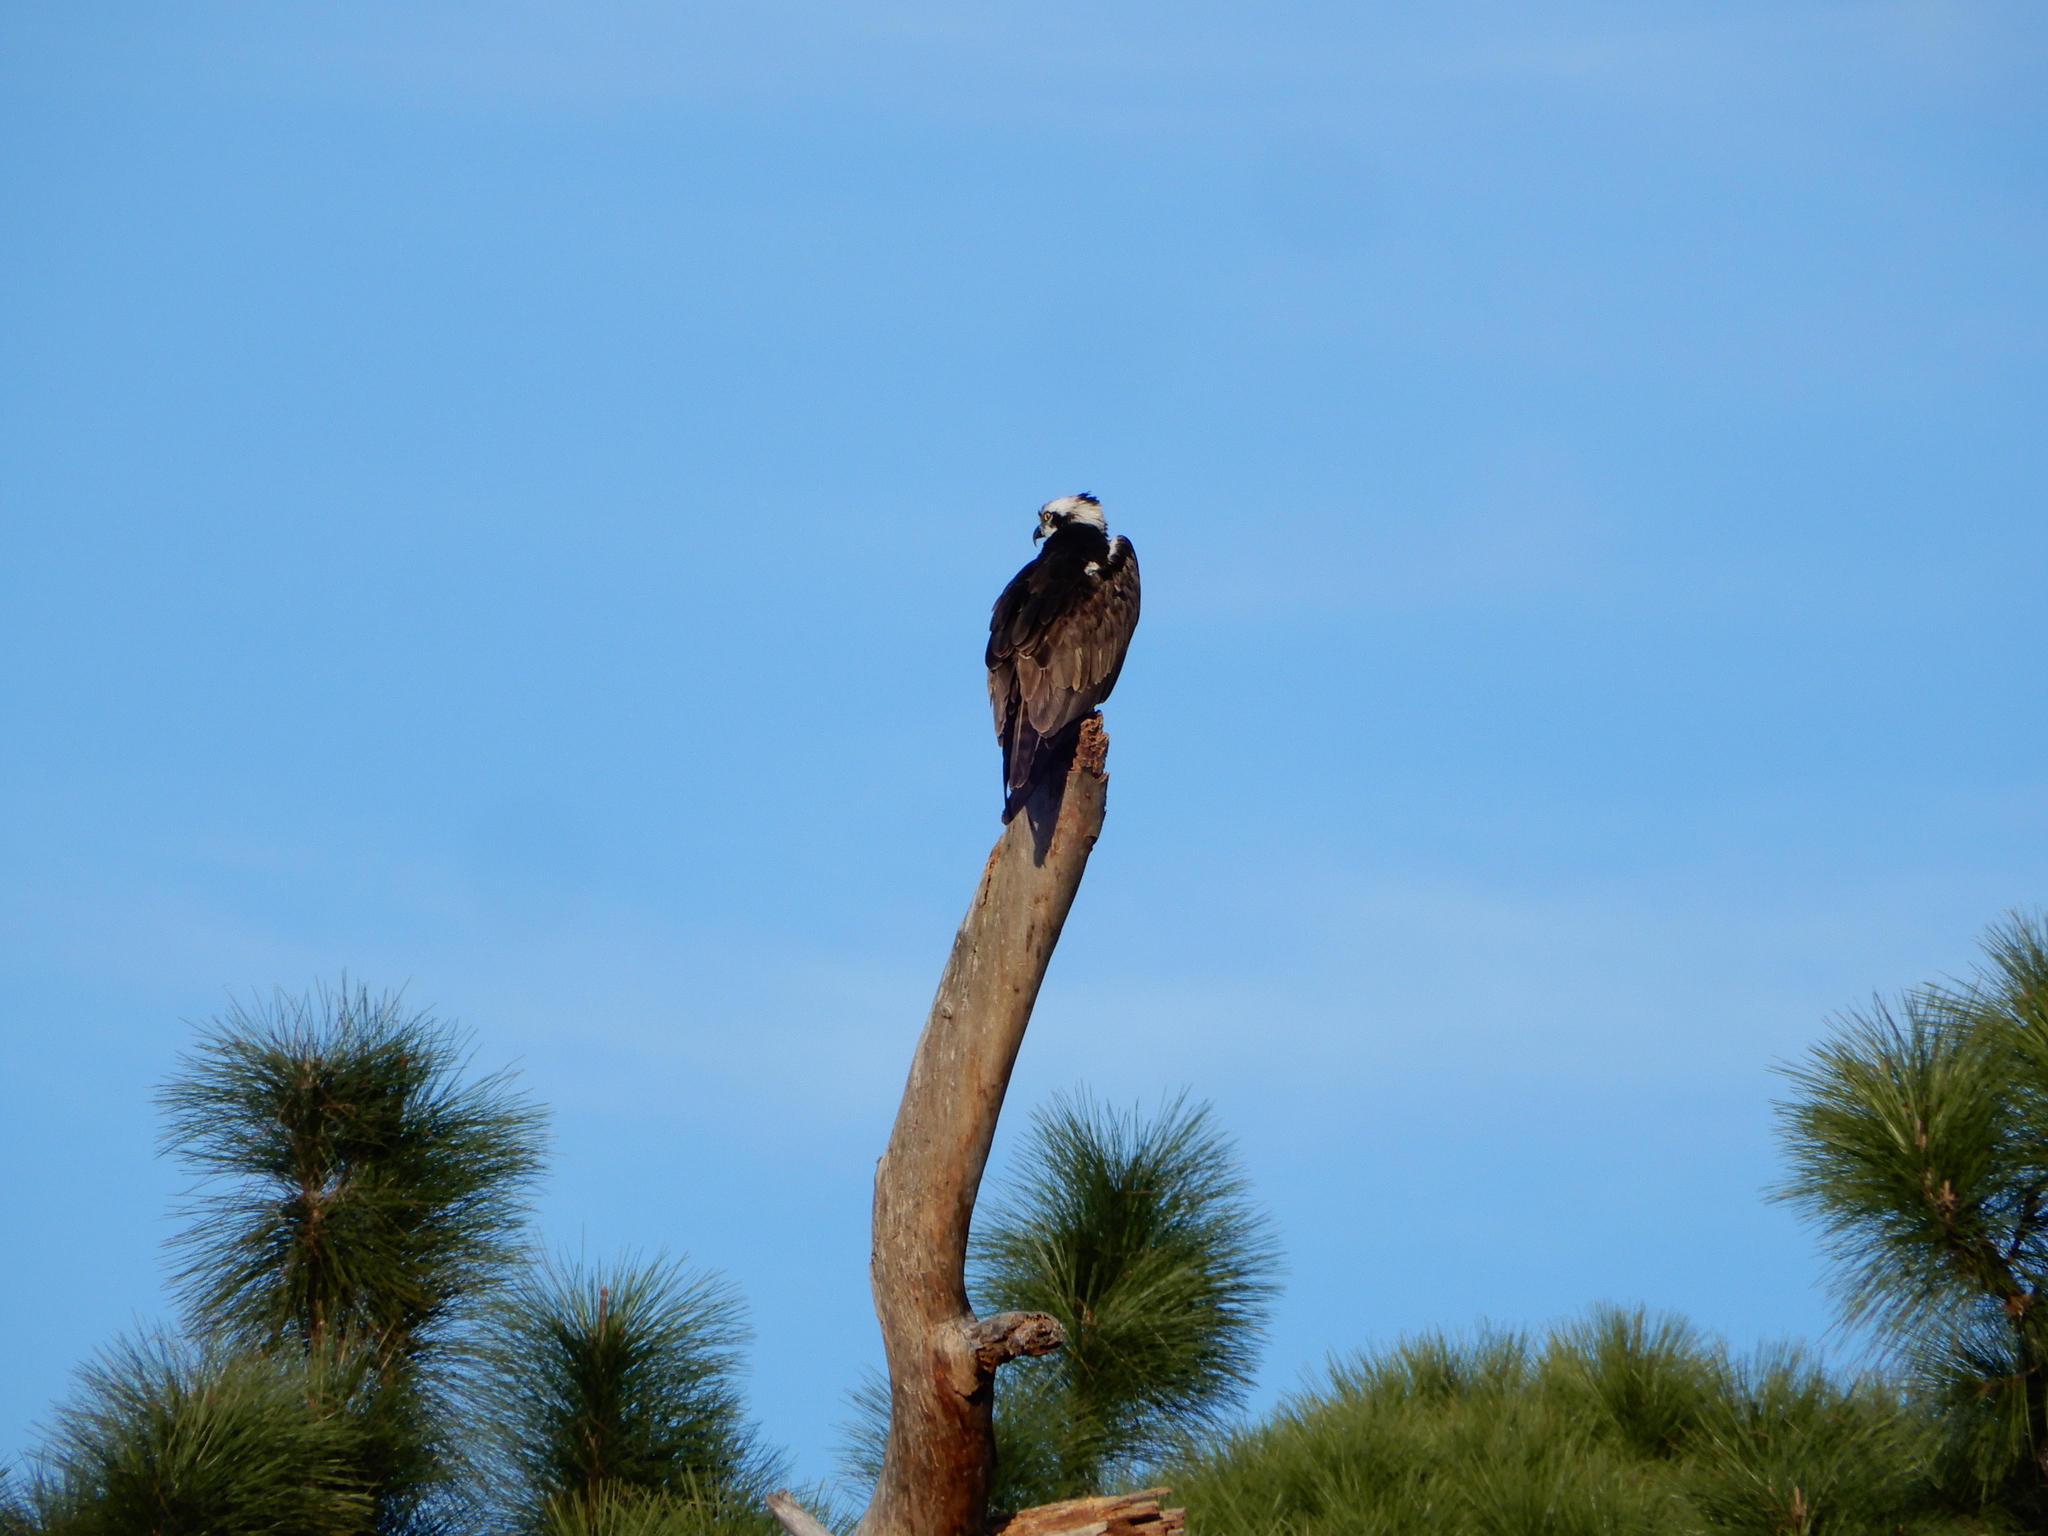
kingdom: Animalia
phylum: Chordata
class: Aves
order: Accipitriformes
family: Pandionidae
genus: Pandion
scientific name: Pandion haliaetus
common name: Osprey
